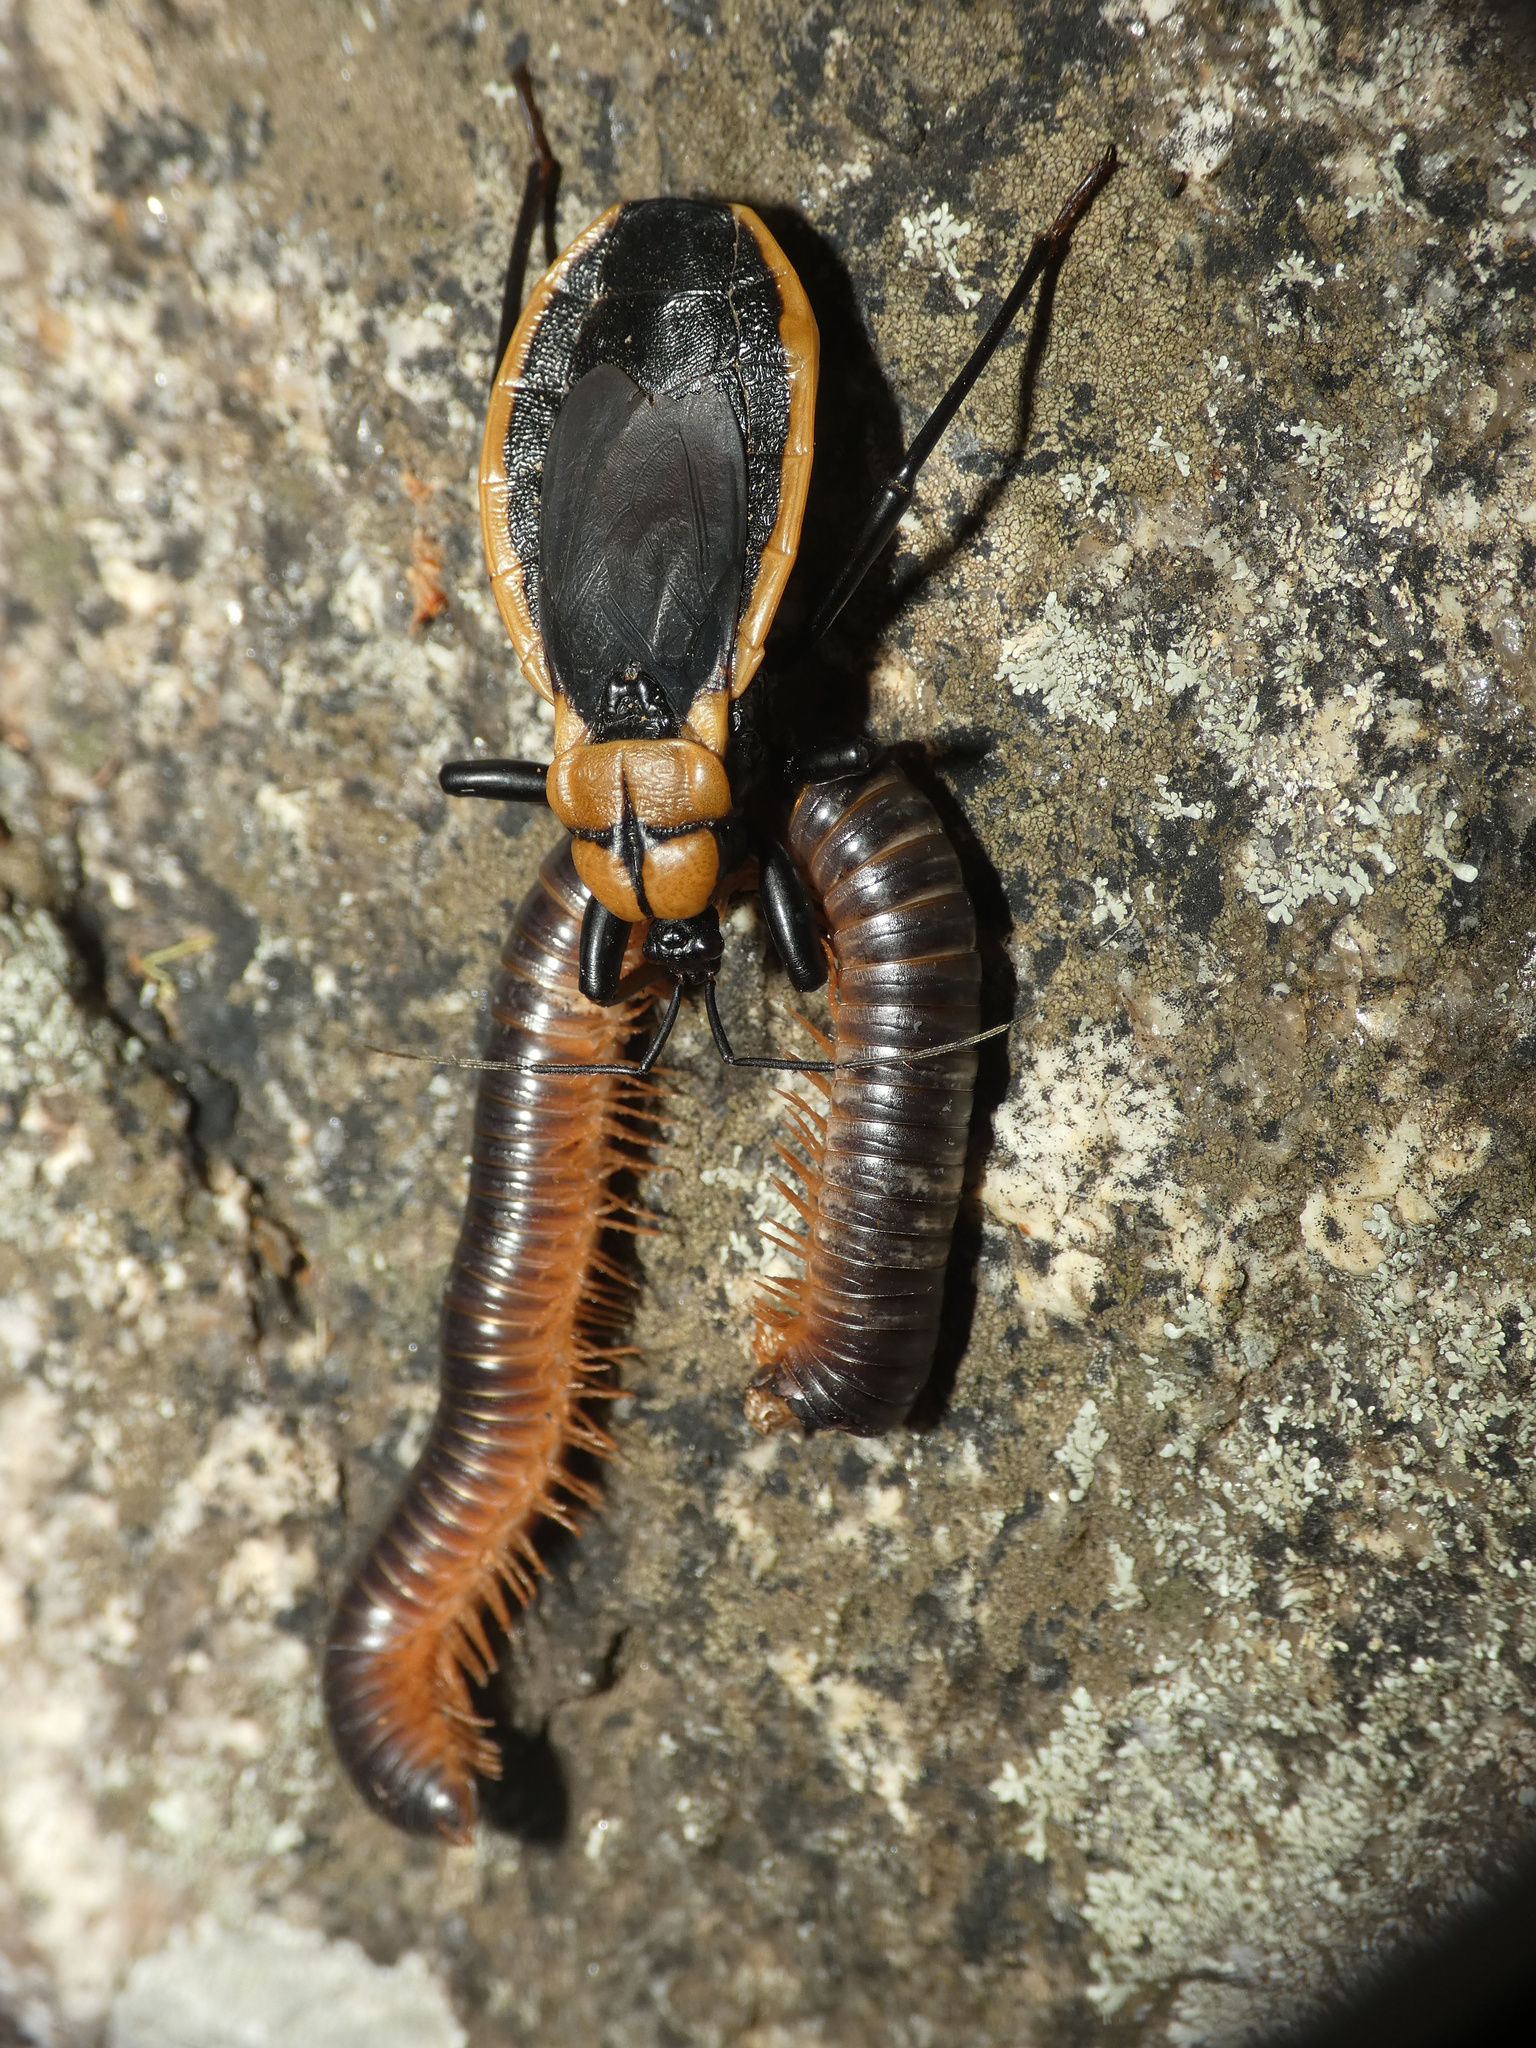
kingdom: Animalia
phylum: Arthropoda
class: Insecta
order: Hemiptera
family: Reduviidae
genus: Ectrichodia
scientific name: Ectrichodia crux
